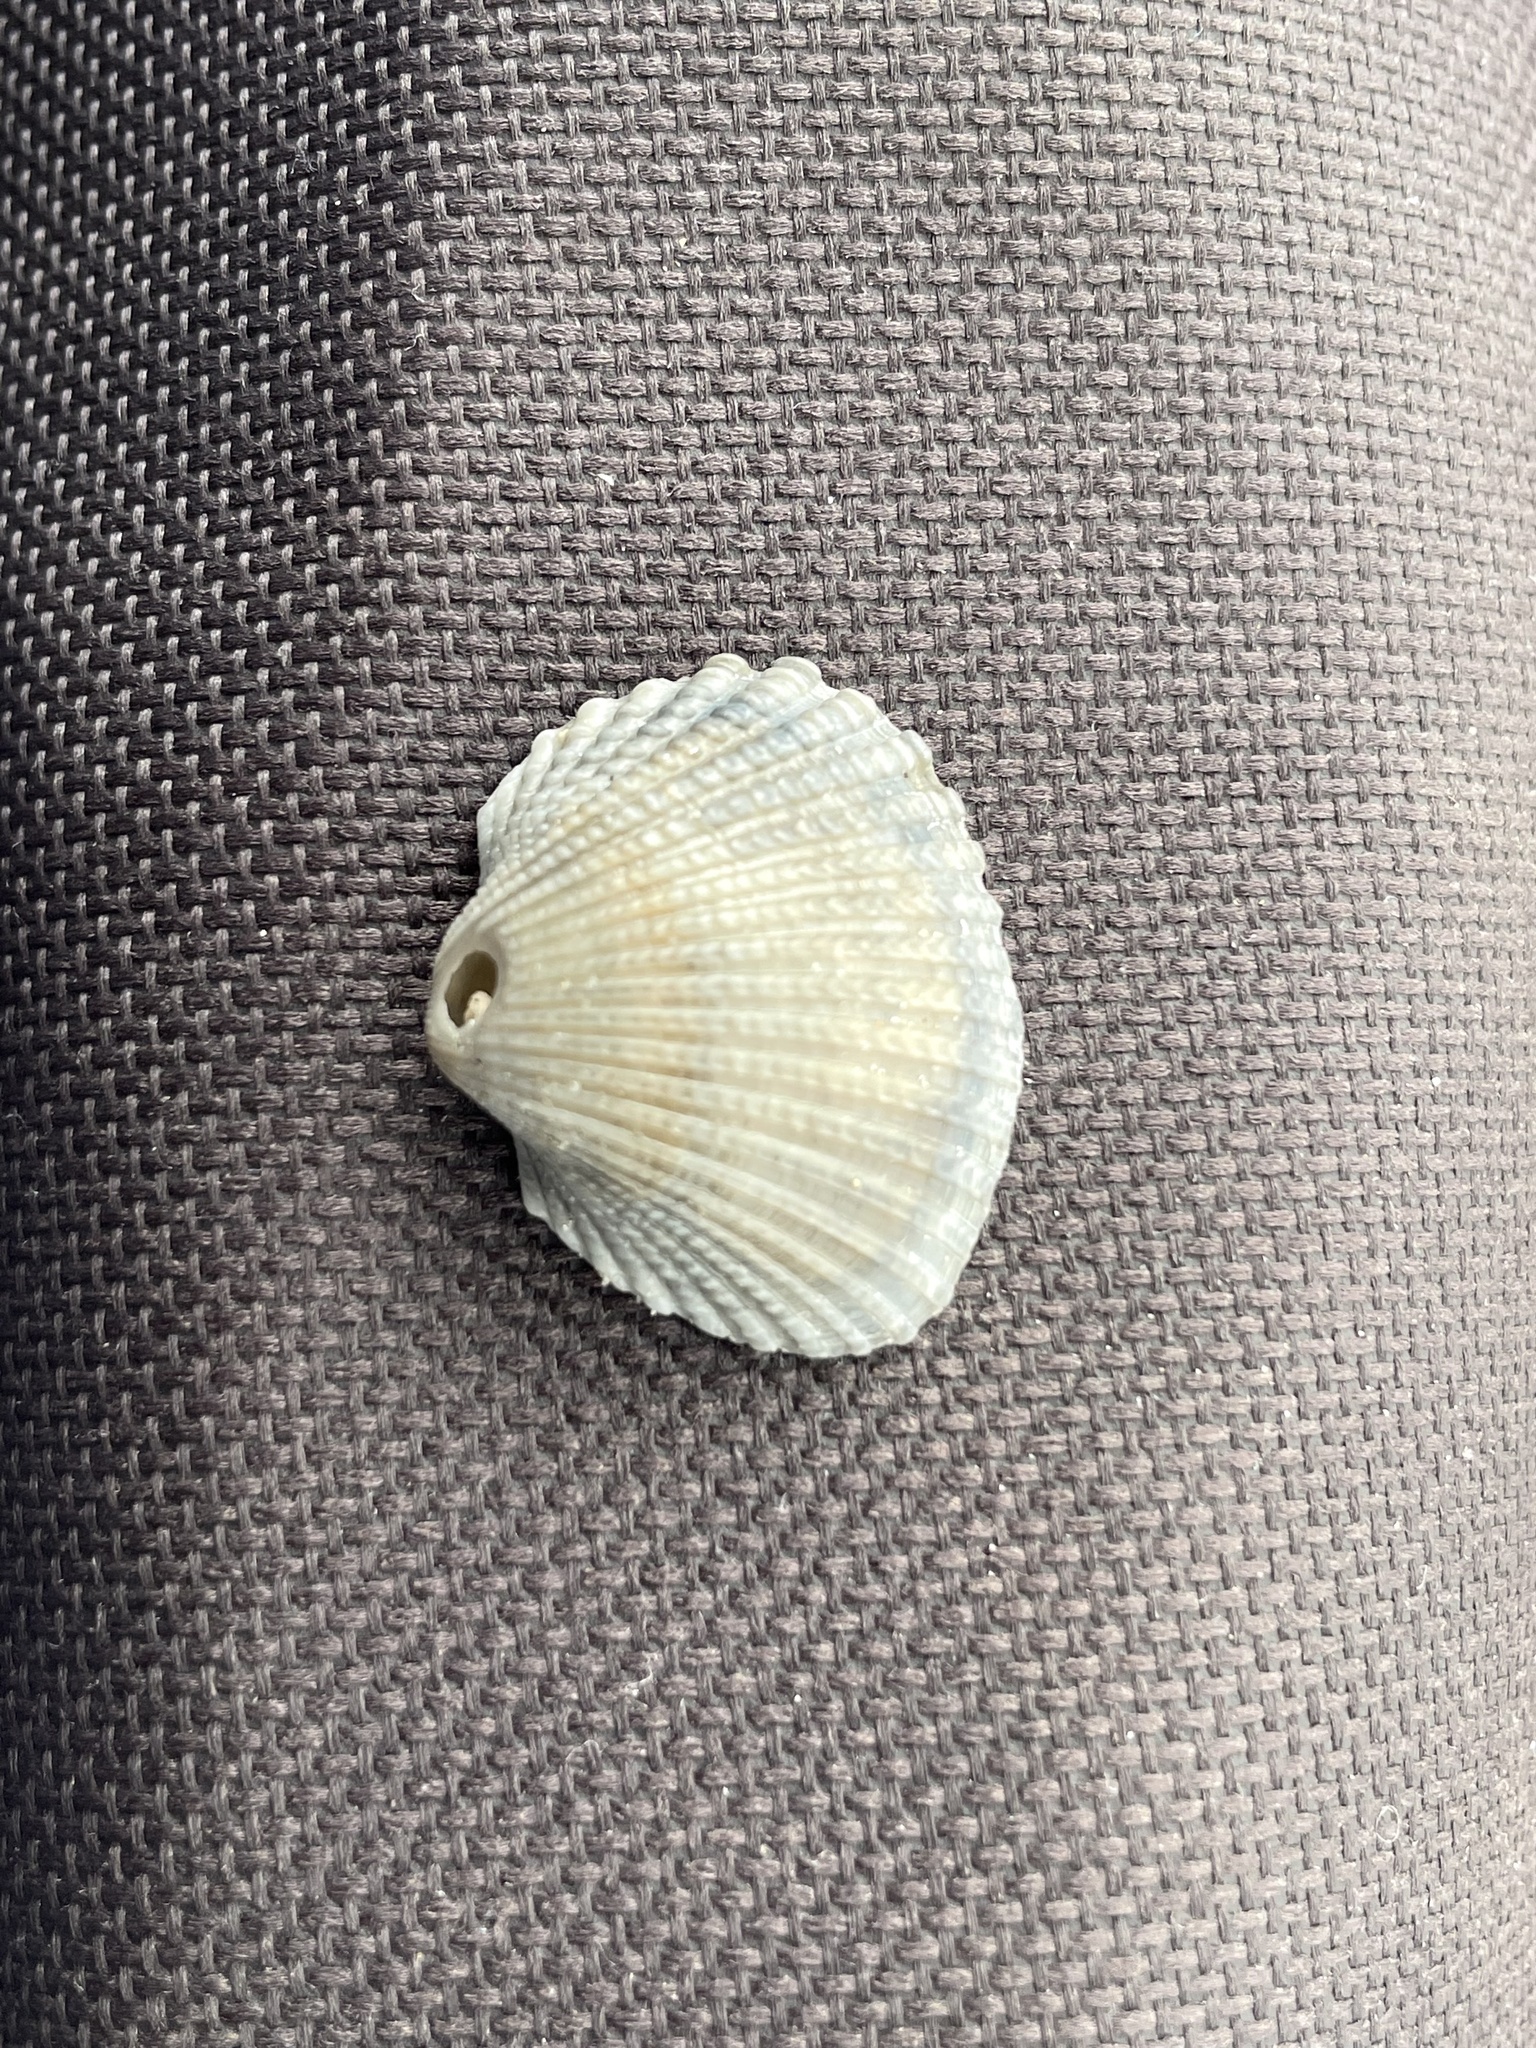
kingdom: Animalia
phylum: Mollusca
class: Bivalvia
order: Arcida
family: Arcidae
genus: Anadara
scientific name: Anadara brasiliana
